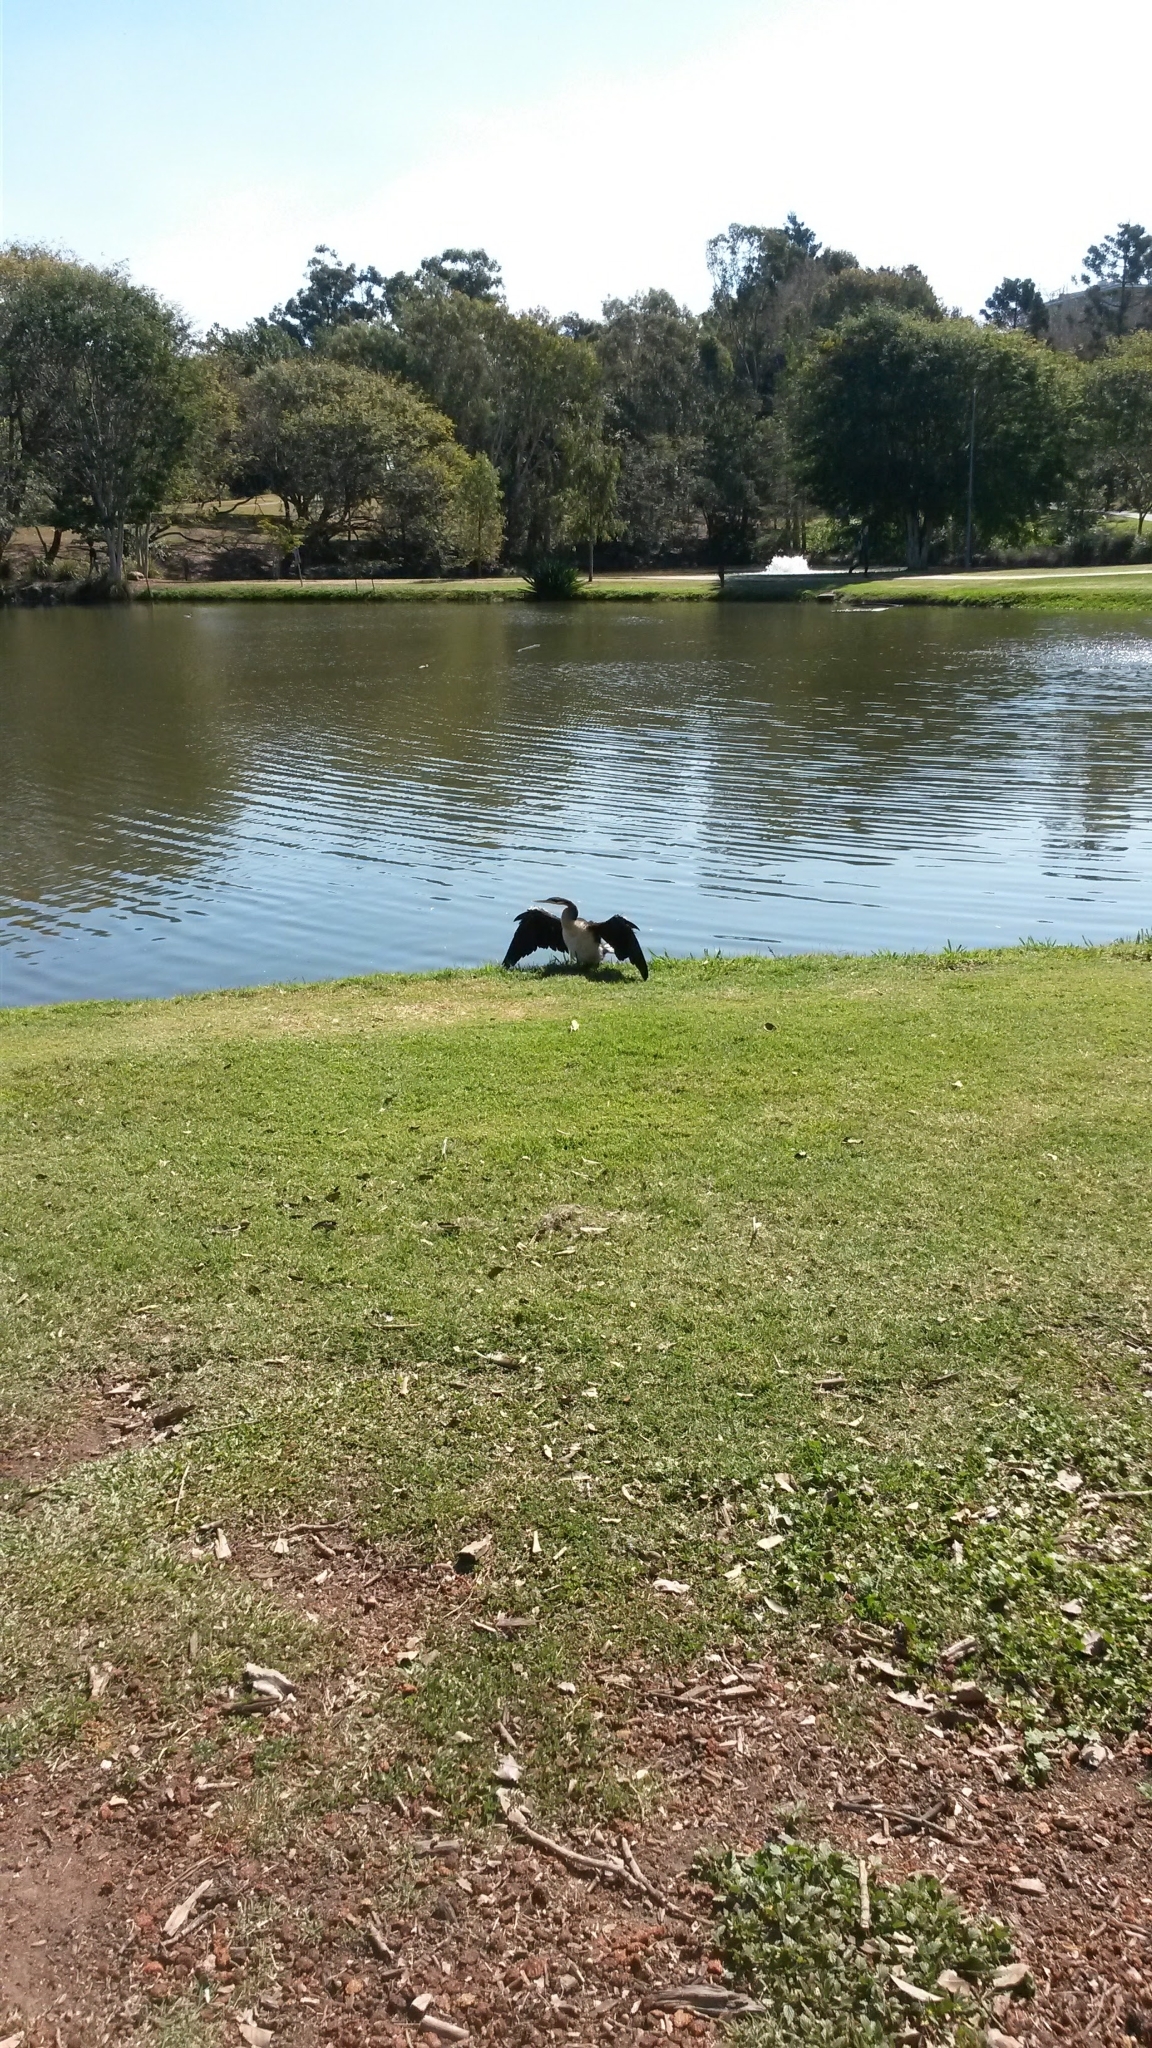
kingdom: Animalia
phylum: Chordata
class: Aves
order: Suliformes
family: Anhingidae
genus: Anhinga
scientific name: Anhinga novaehollandiae
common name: Australasian darter
